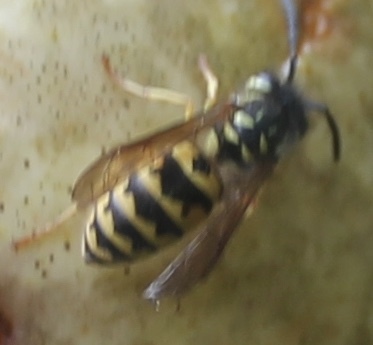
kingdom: Animalia
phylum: Arthropoda
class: Insecta
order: Hymenoptera
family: Vespidae
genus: Vespula
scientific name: Vespula flavopilosa
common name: Downy yellowjacket
